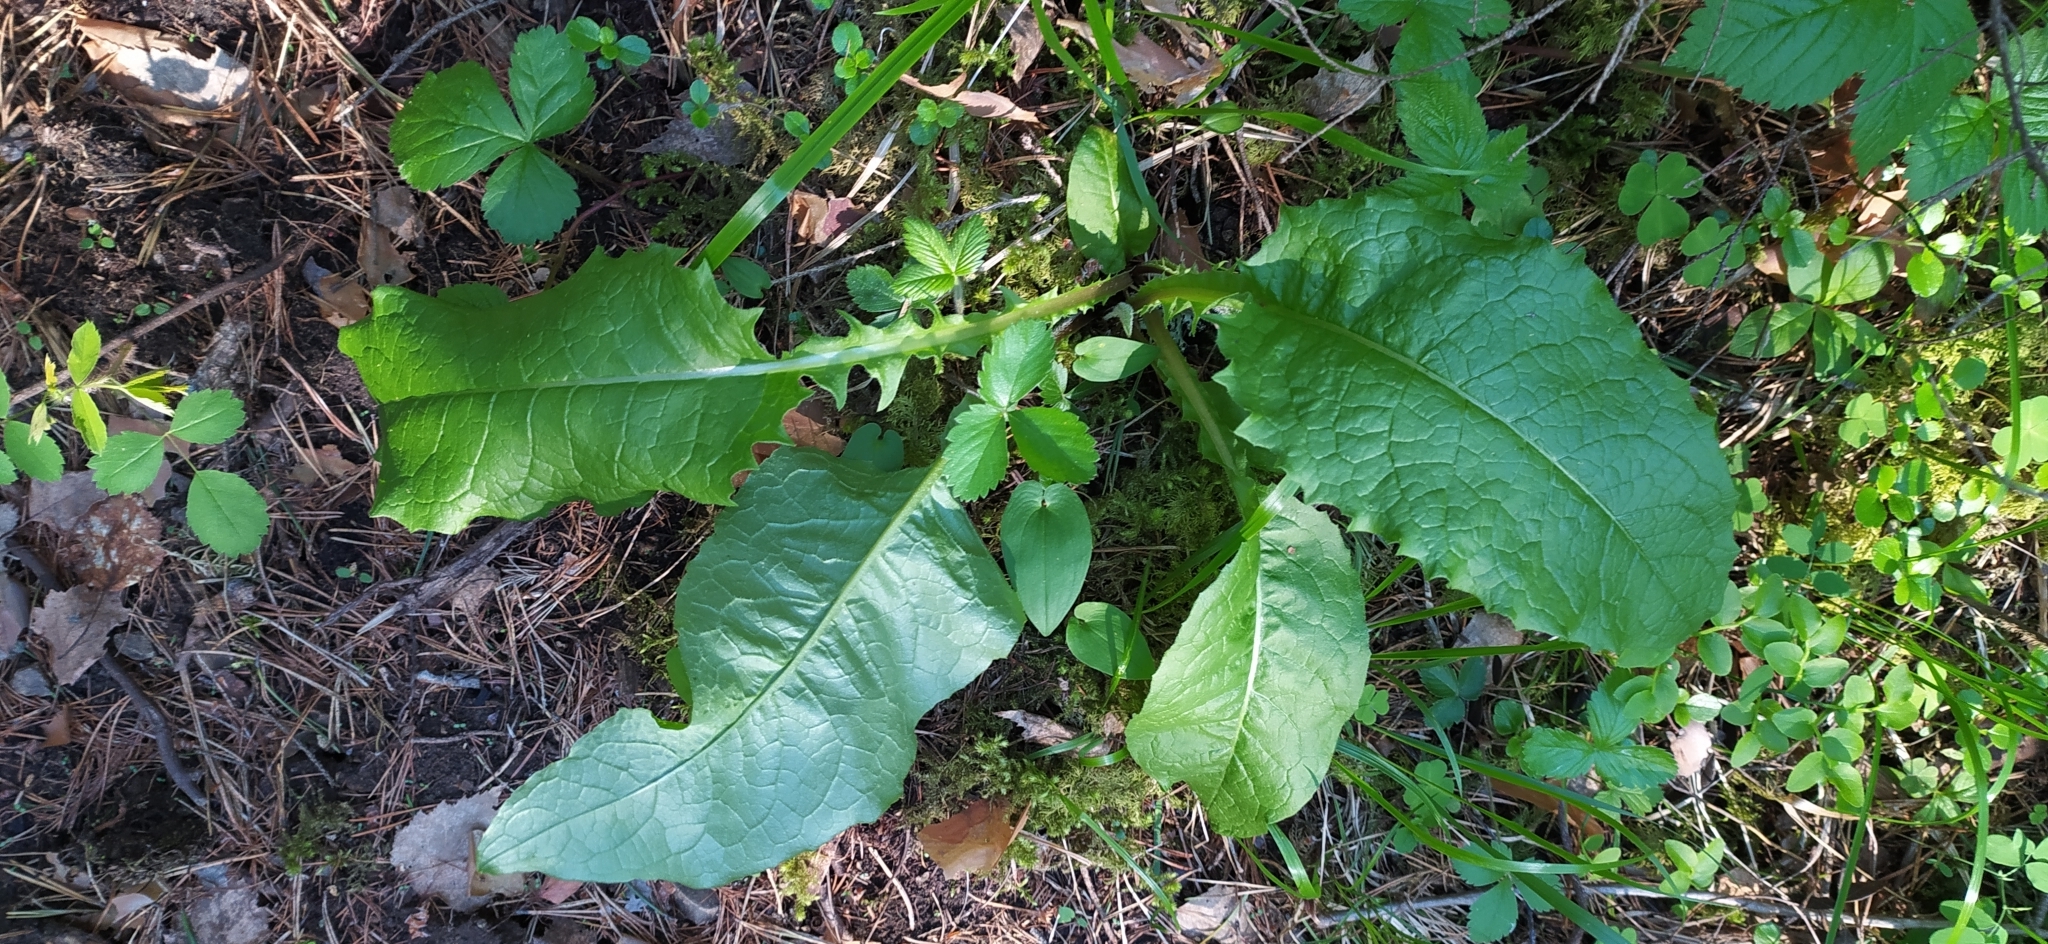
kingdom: Plantae
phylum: Tracheophyta
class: Magnoliopsida
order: Asterales
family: Asteraceae
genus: Crepis
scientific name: Crepis sibirica
